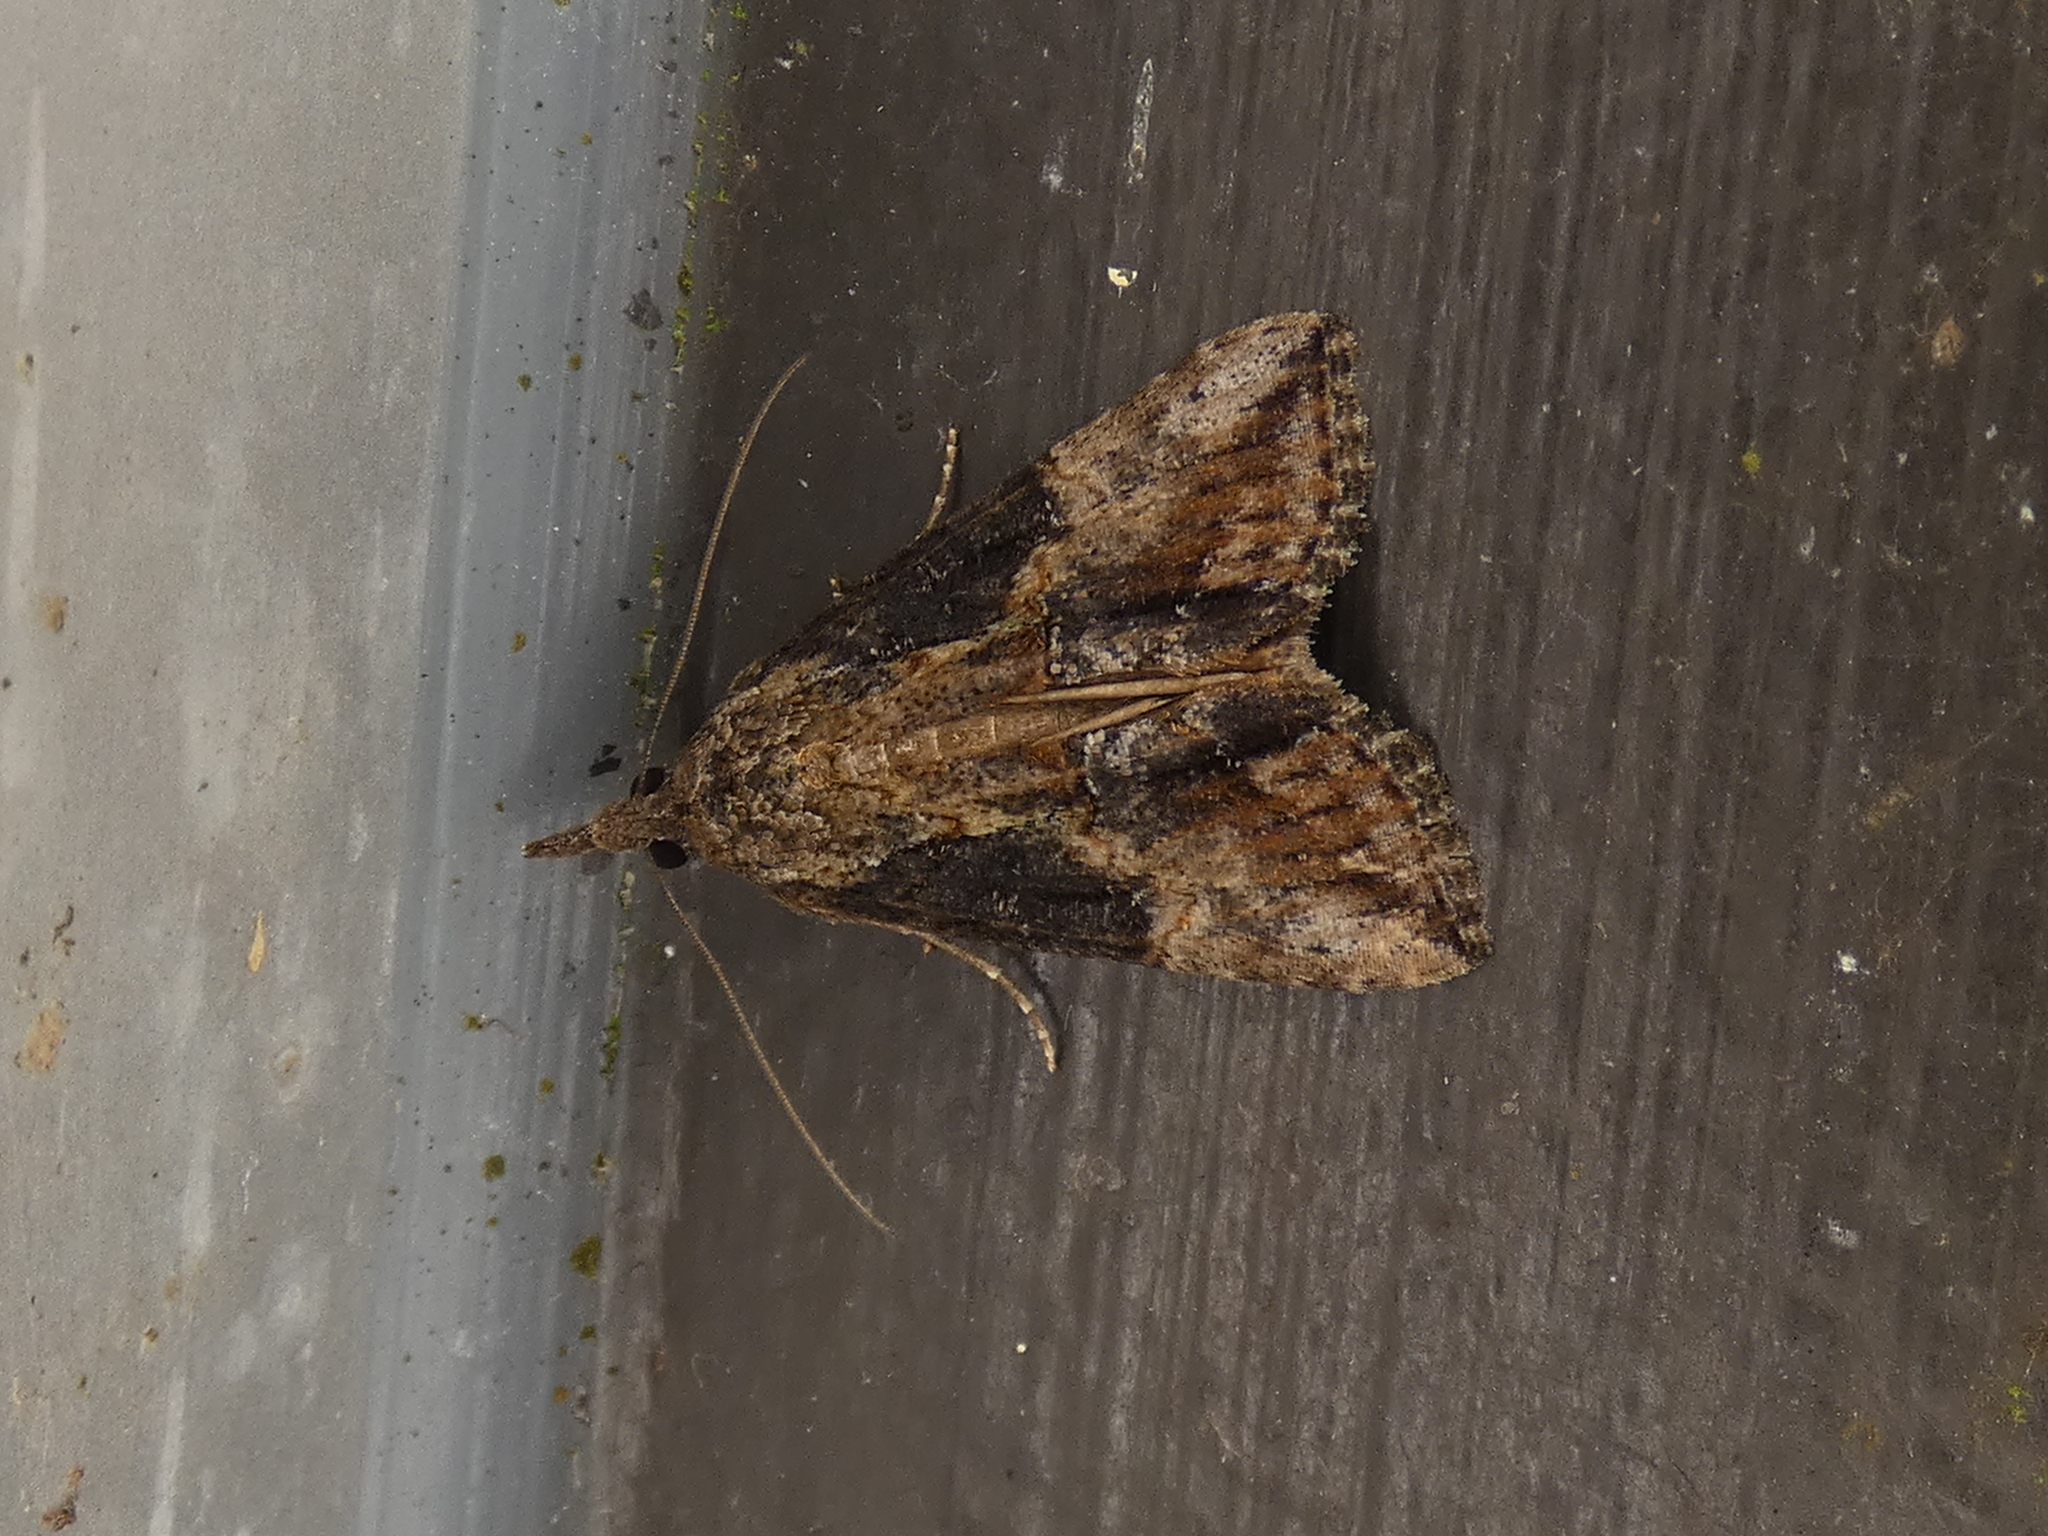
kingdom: Animalia
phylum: Arthropoda
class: Insecta
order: Lepidoptera
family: Erebidae
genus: Hypena
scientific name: Hypena scabra
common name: Green cloverworm
